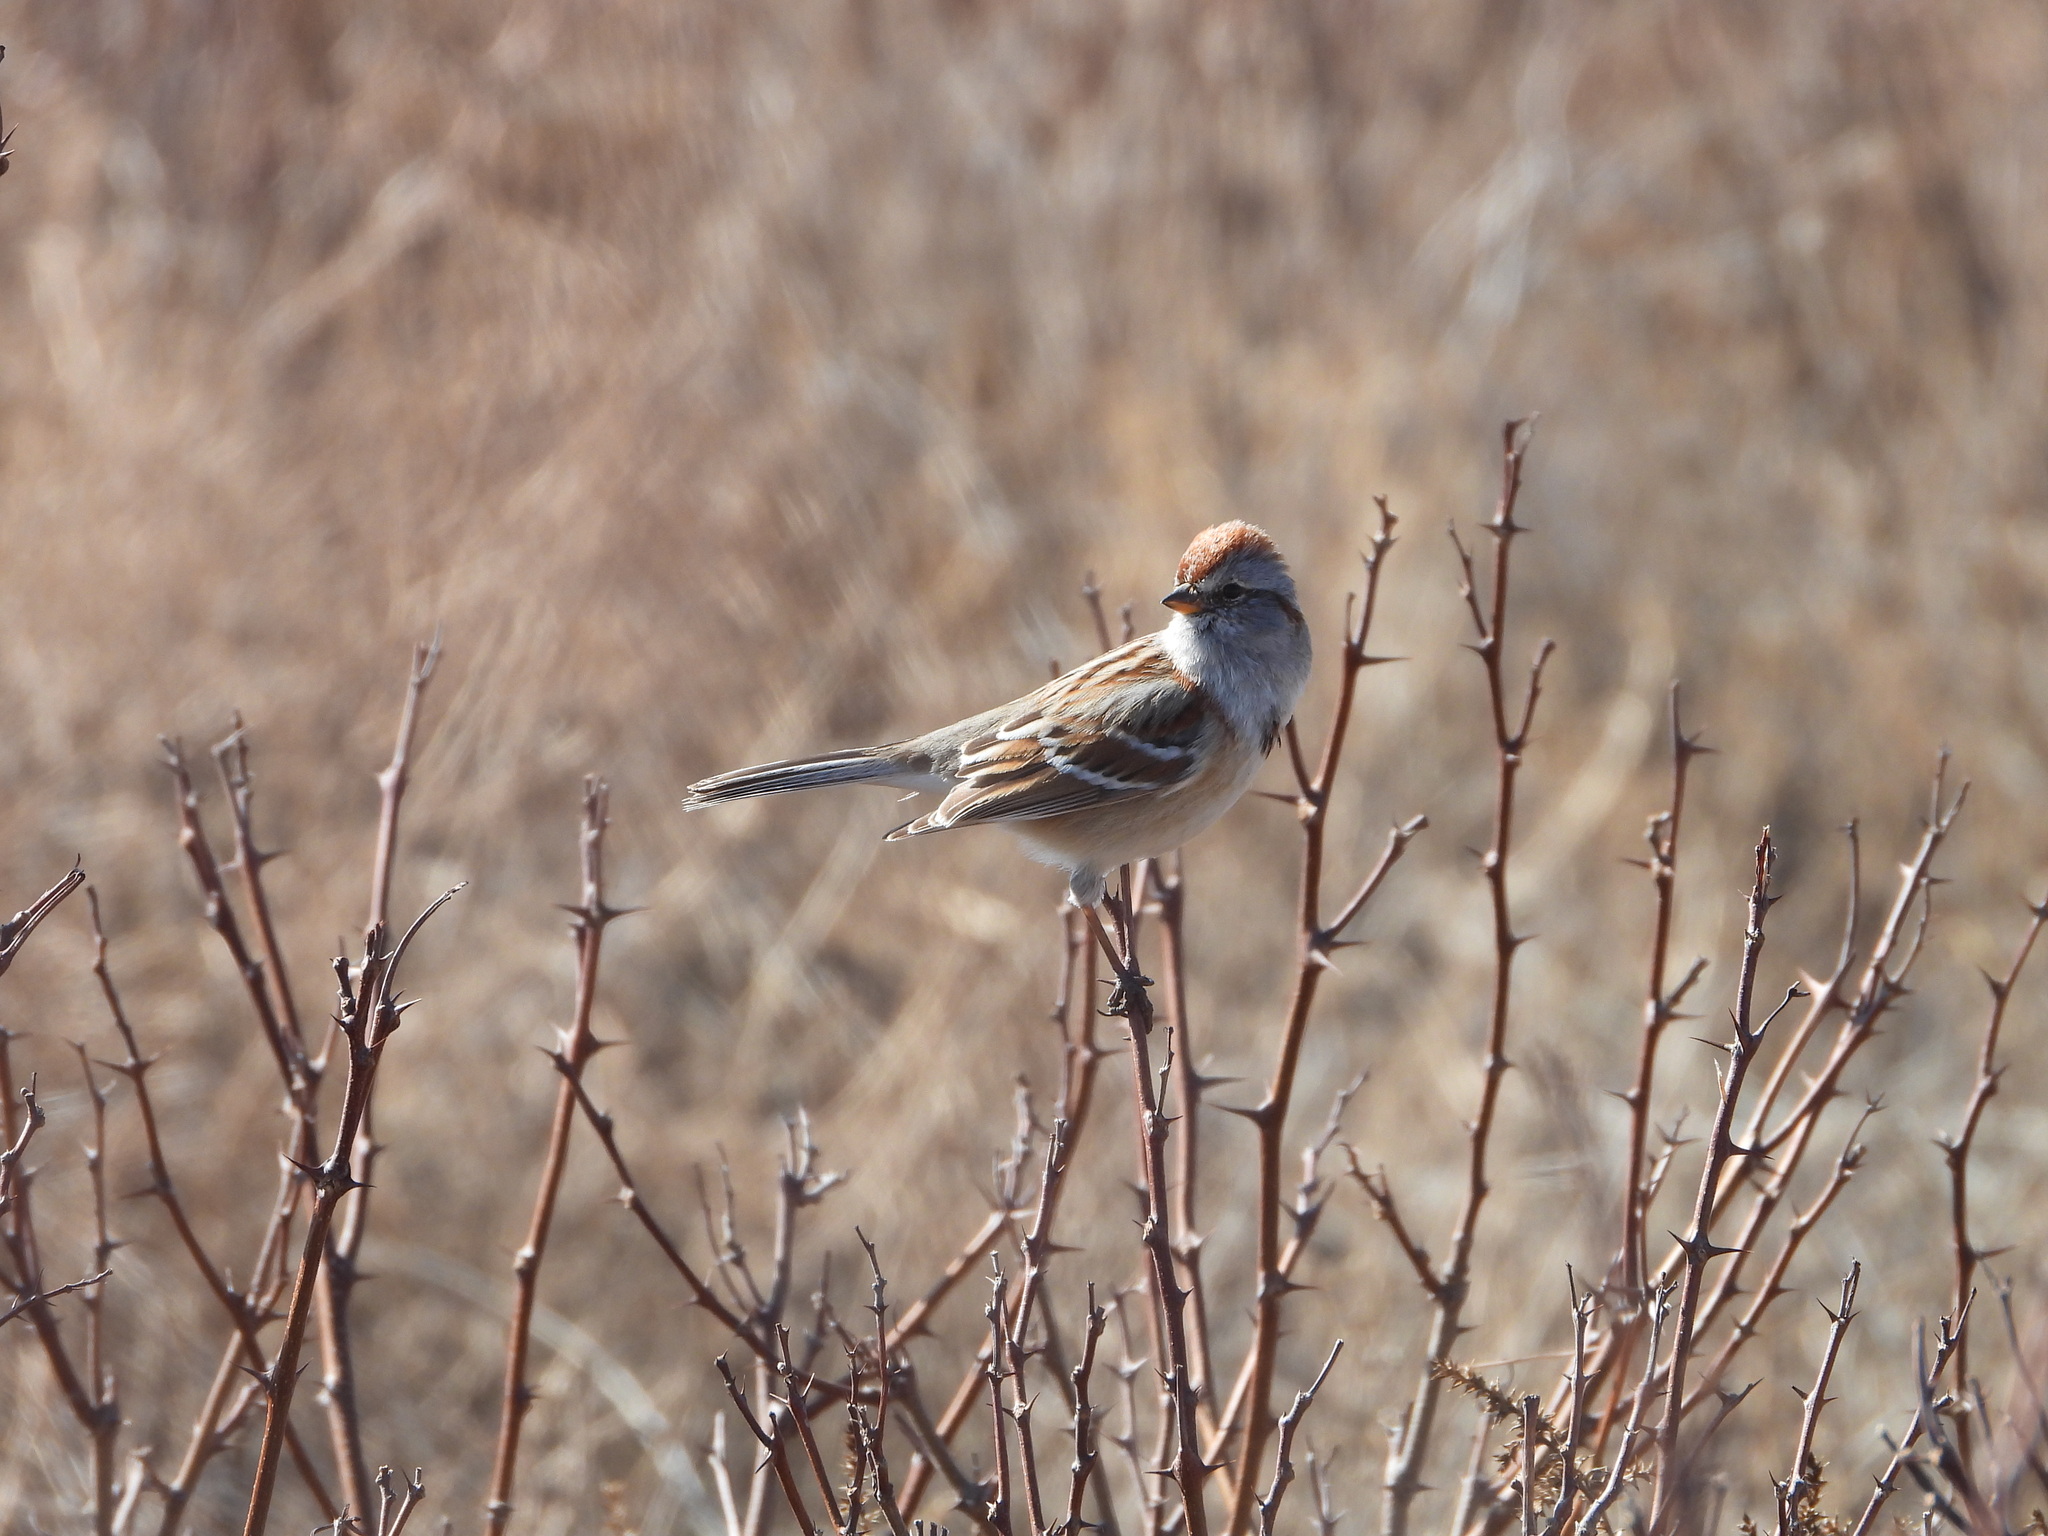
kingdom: Animalia
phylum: Chordata
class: Aves
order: Passeriformes
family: Passerellidae
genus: Spizelloides
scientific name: Spizelloides arborea
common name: American tree sparrow
